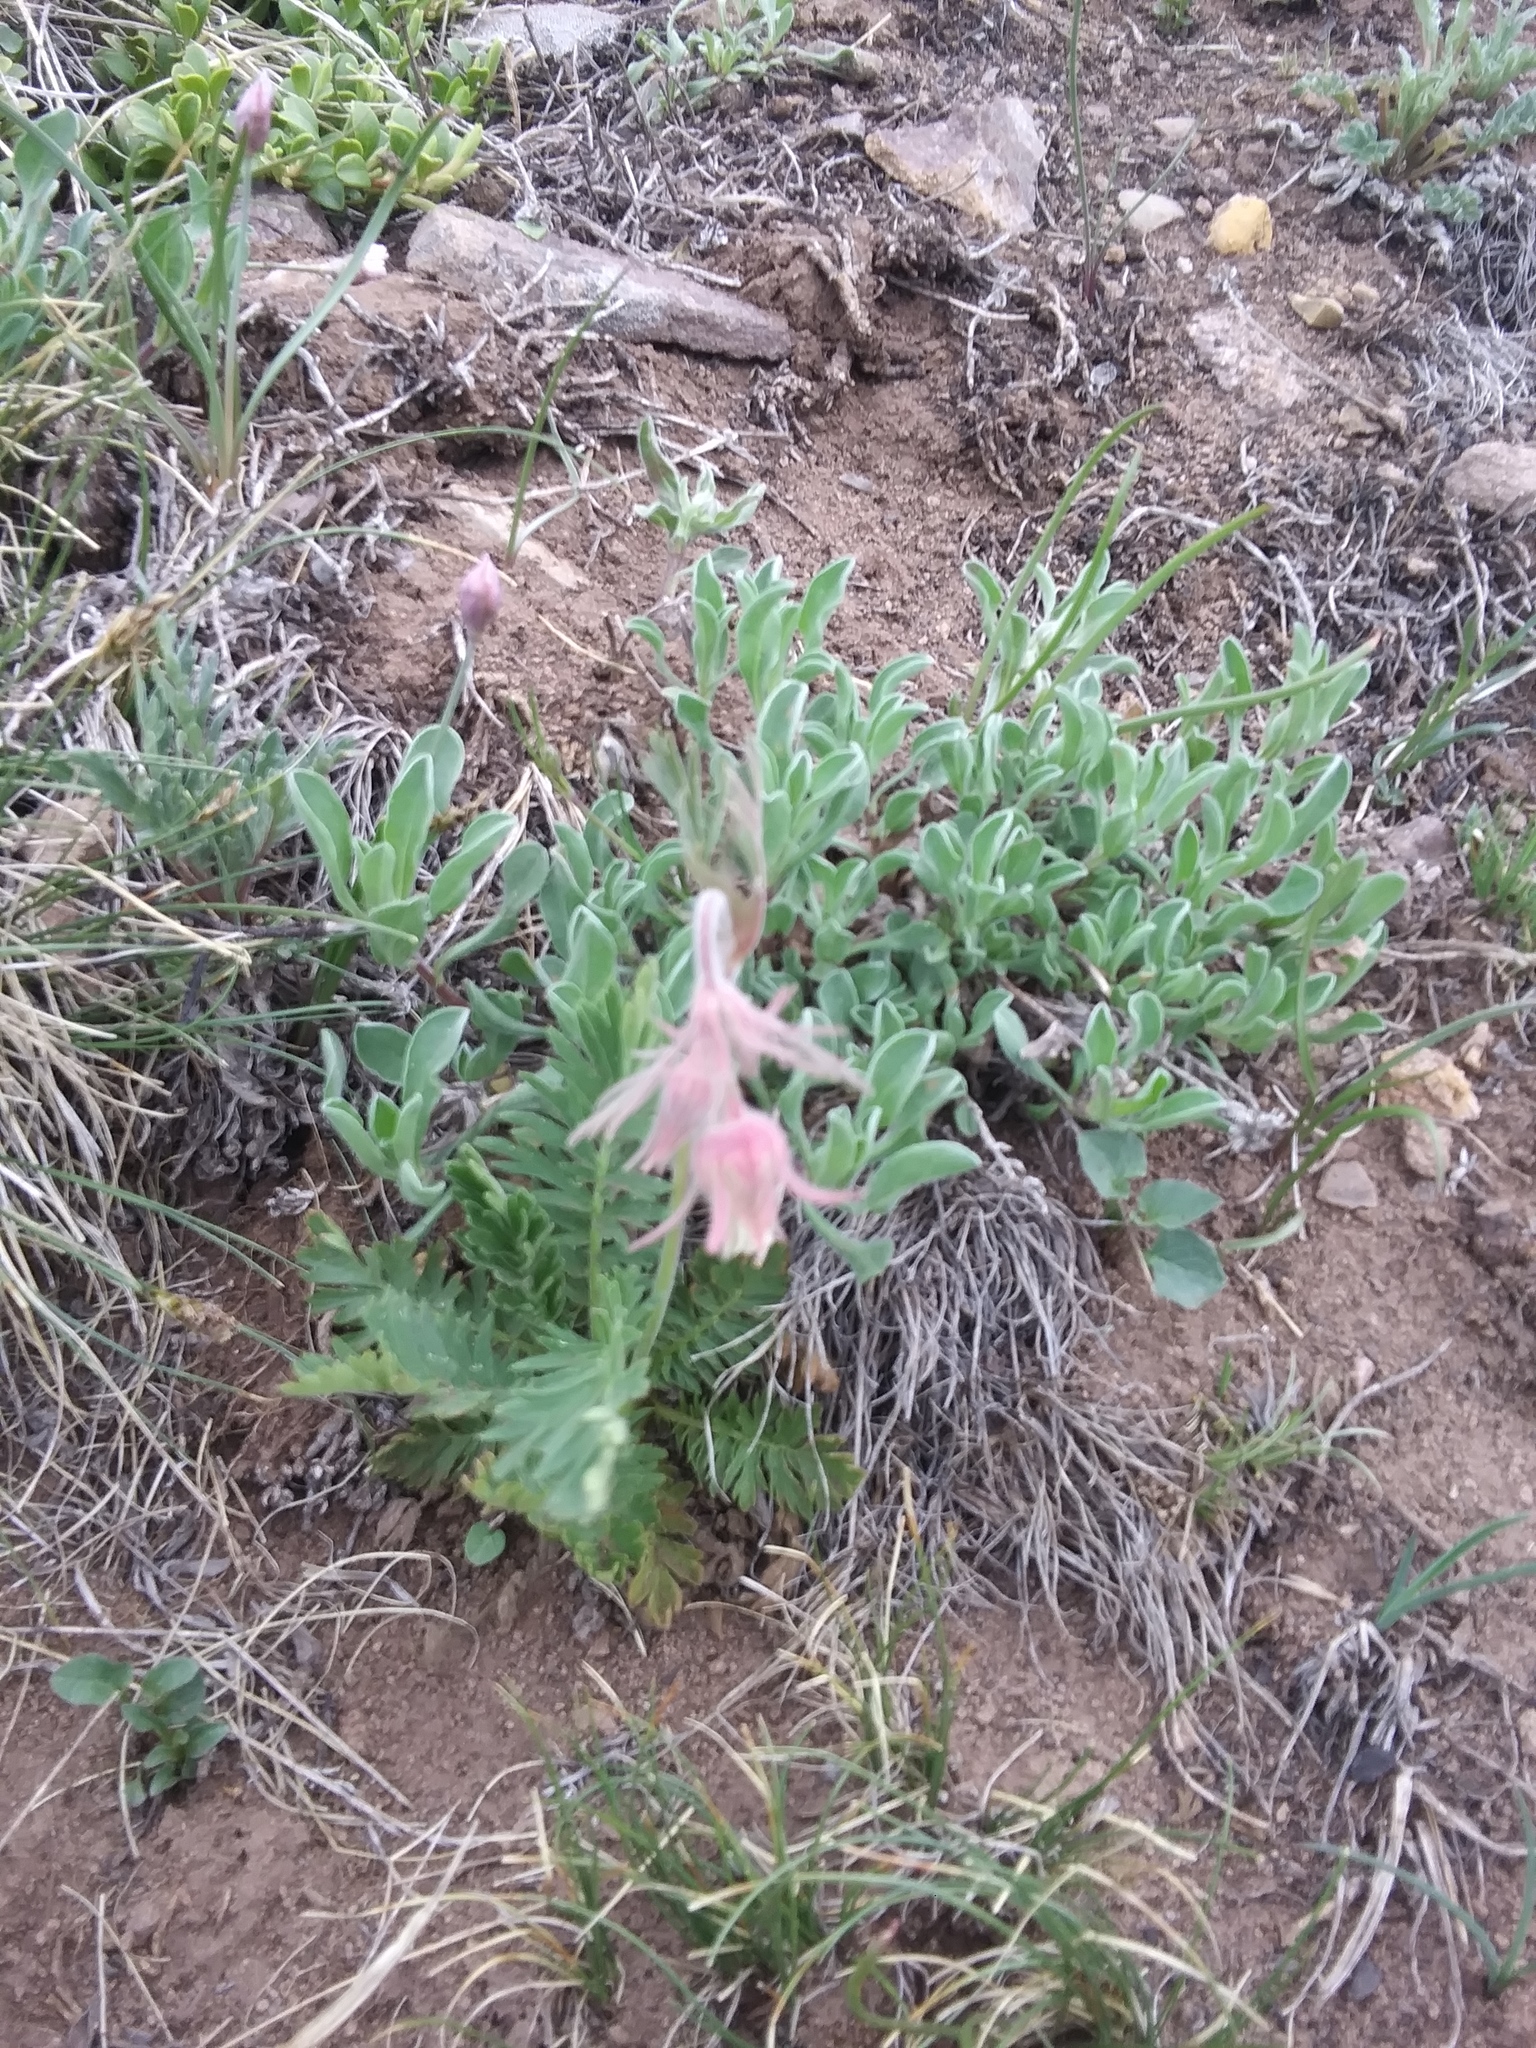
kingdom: Plantae
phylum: Tracheophyta
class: Magnoliopsida
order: Rosales
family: Rosaceae
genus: Geum
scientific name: Geum triflorum
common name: Old man's whiskers
